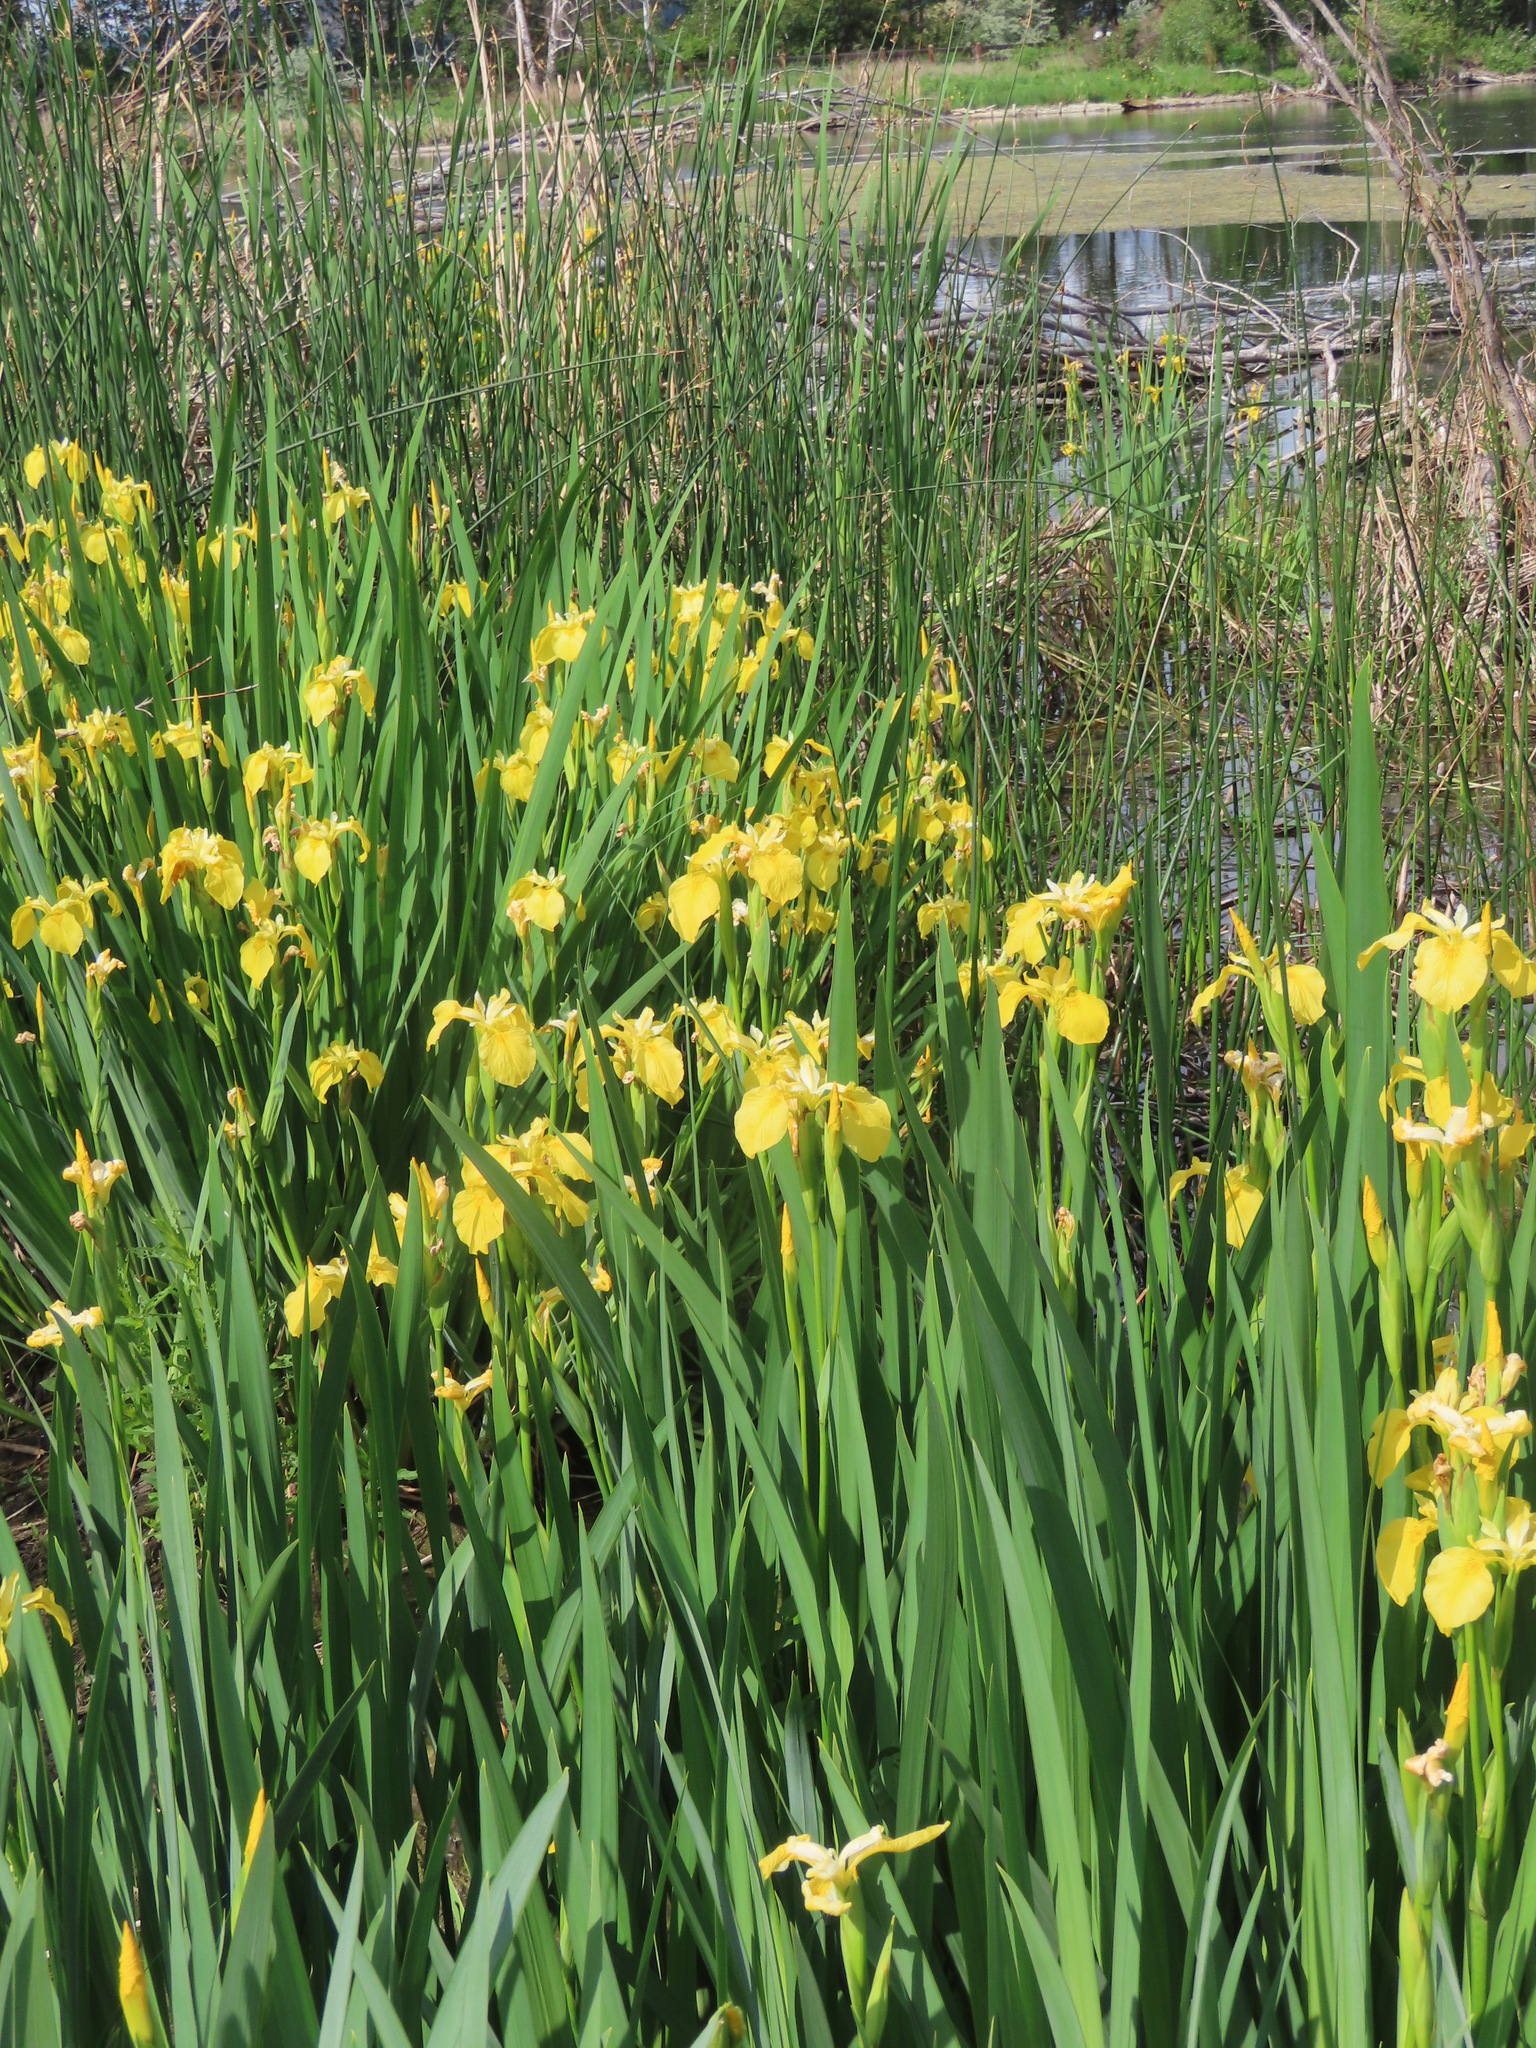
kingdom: Plantae
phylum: Tracheophyta
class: Liliopsida
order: Asparagales
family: Iridaceae
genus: Iris
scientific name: Iris pseudacorus
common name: Yellow flag
